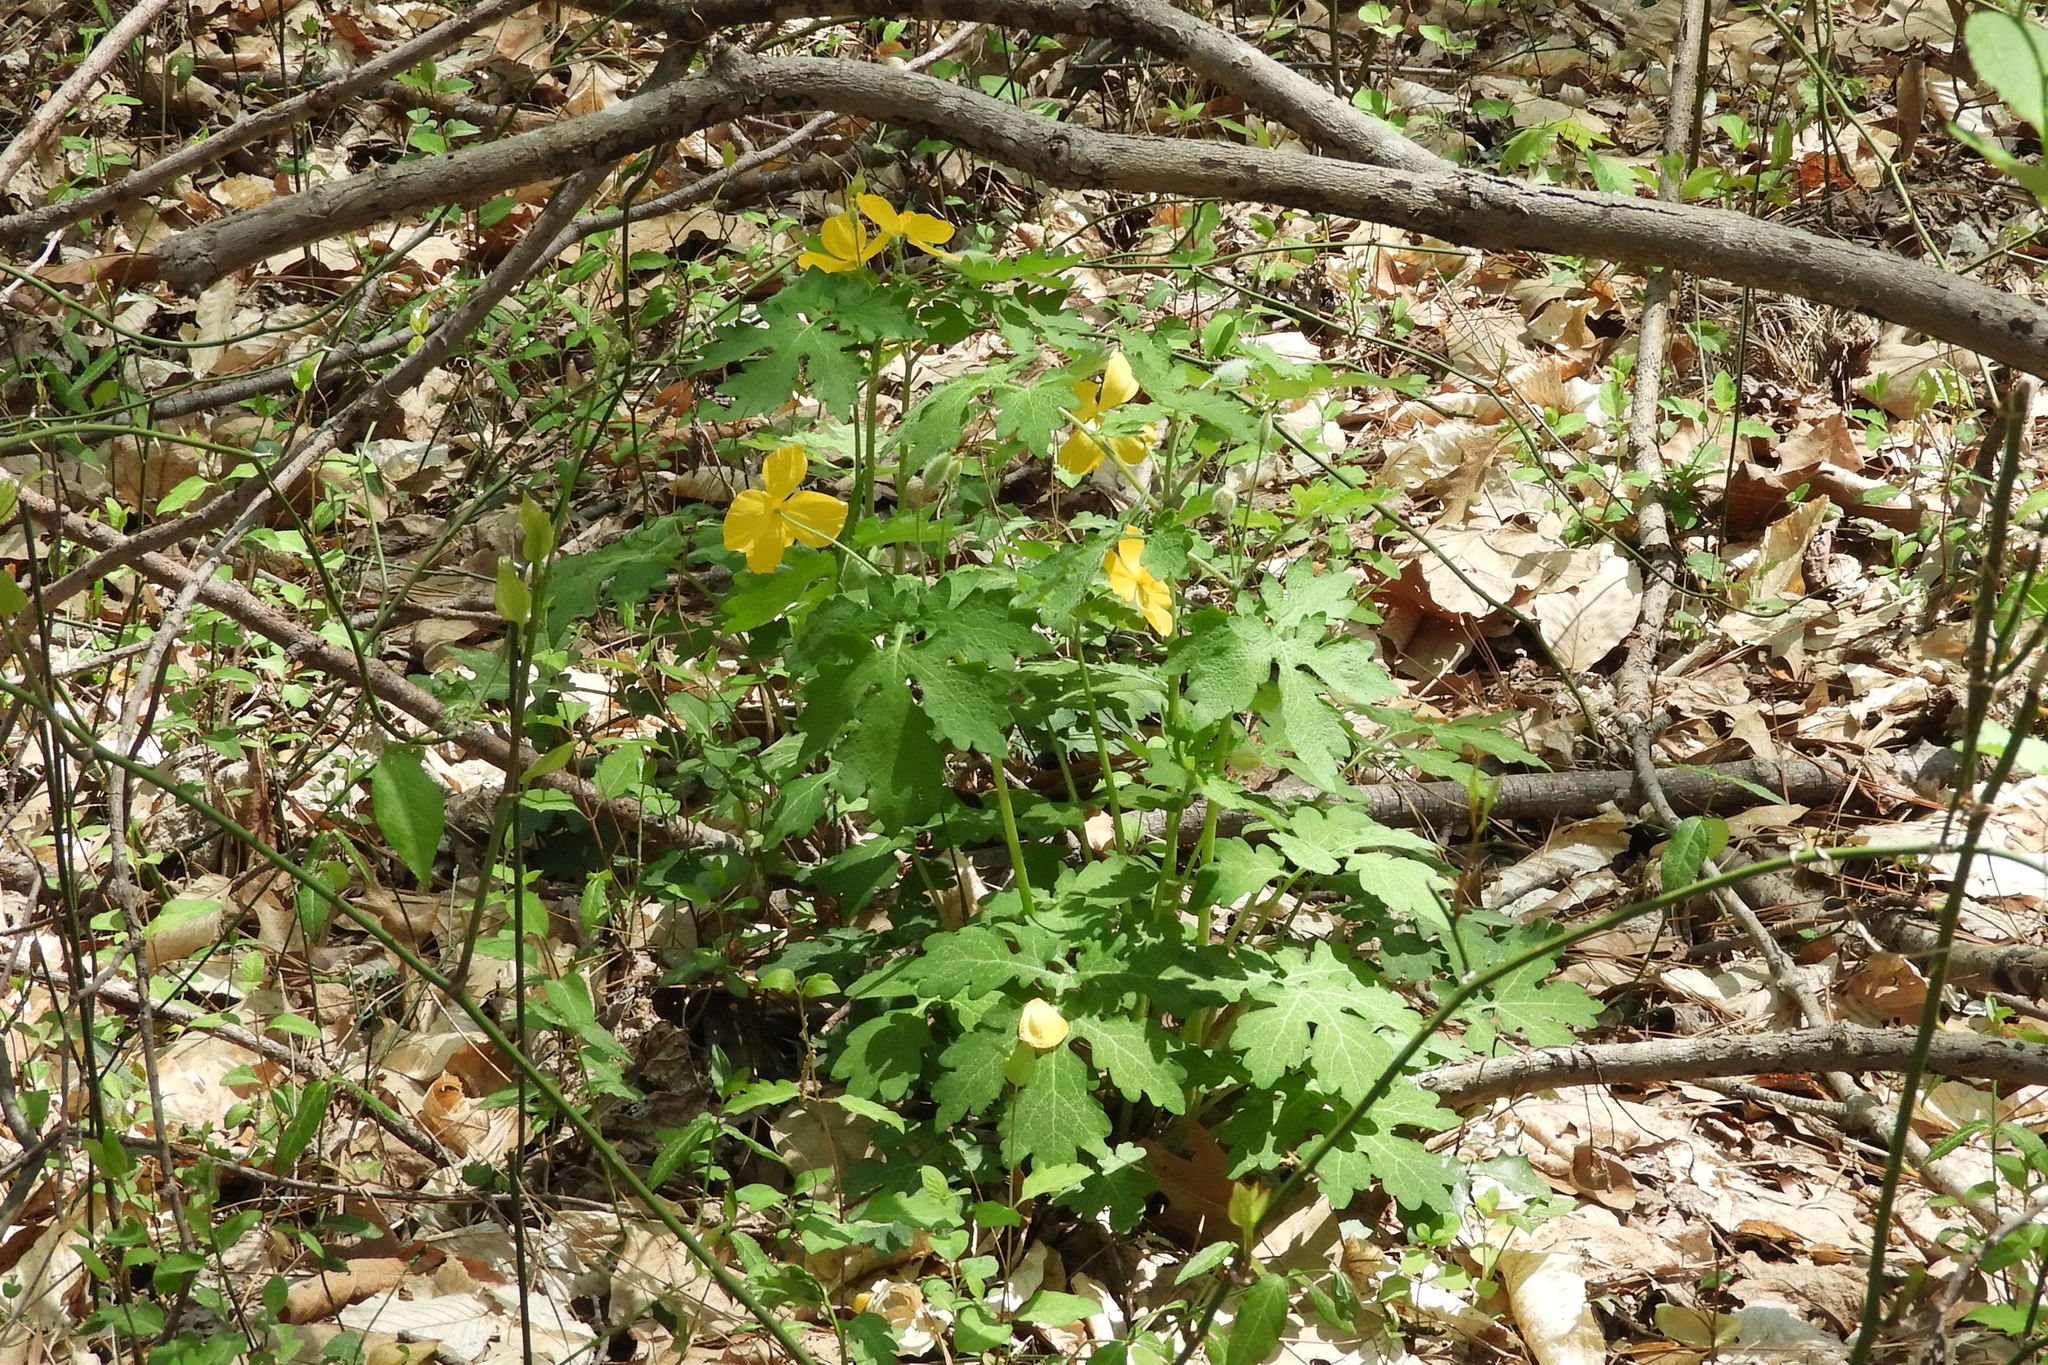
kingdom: Plantae
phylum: Tracheophyta
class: Magnoliopsida
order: Ranunculales
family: Papaveraceae
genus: Stylophorum
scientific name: Stylophorum diphyllum
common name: Celandine poppy
